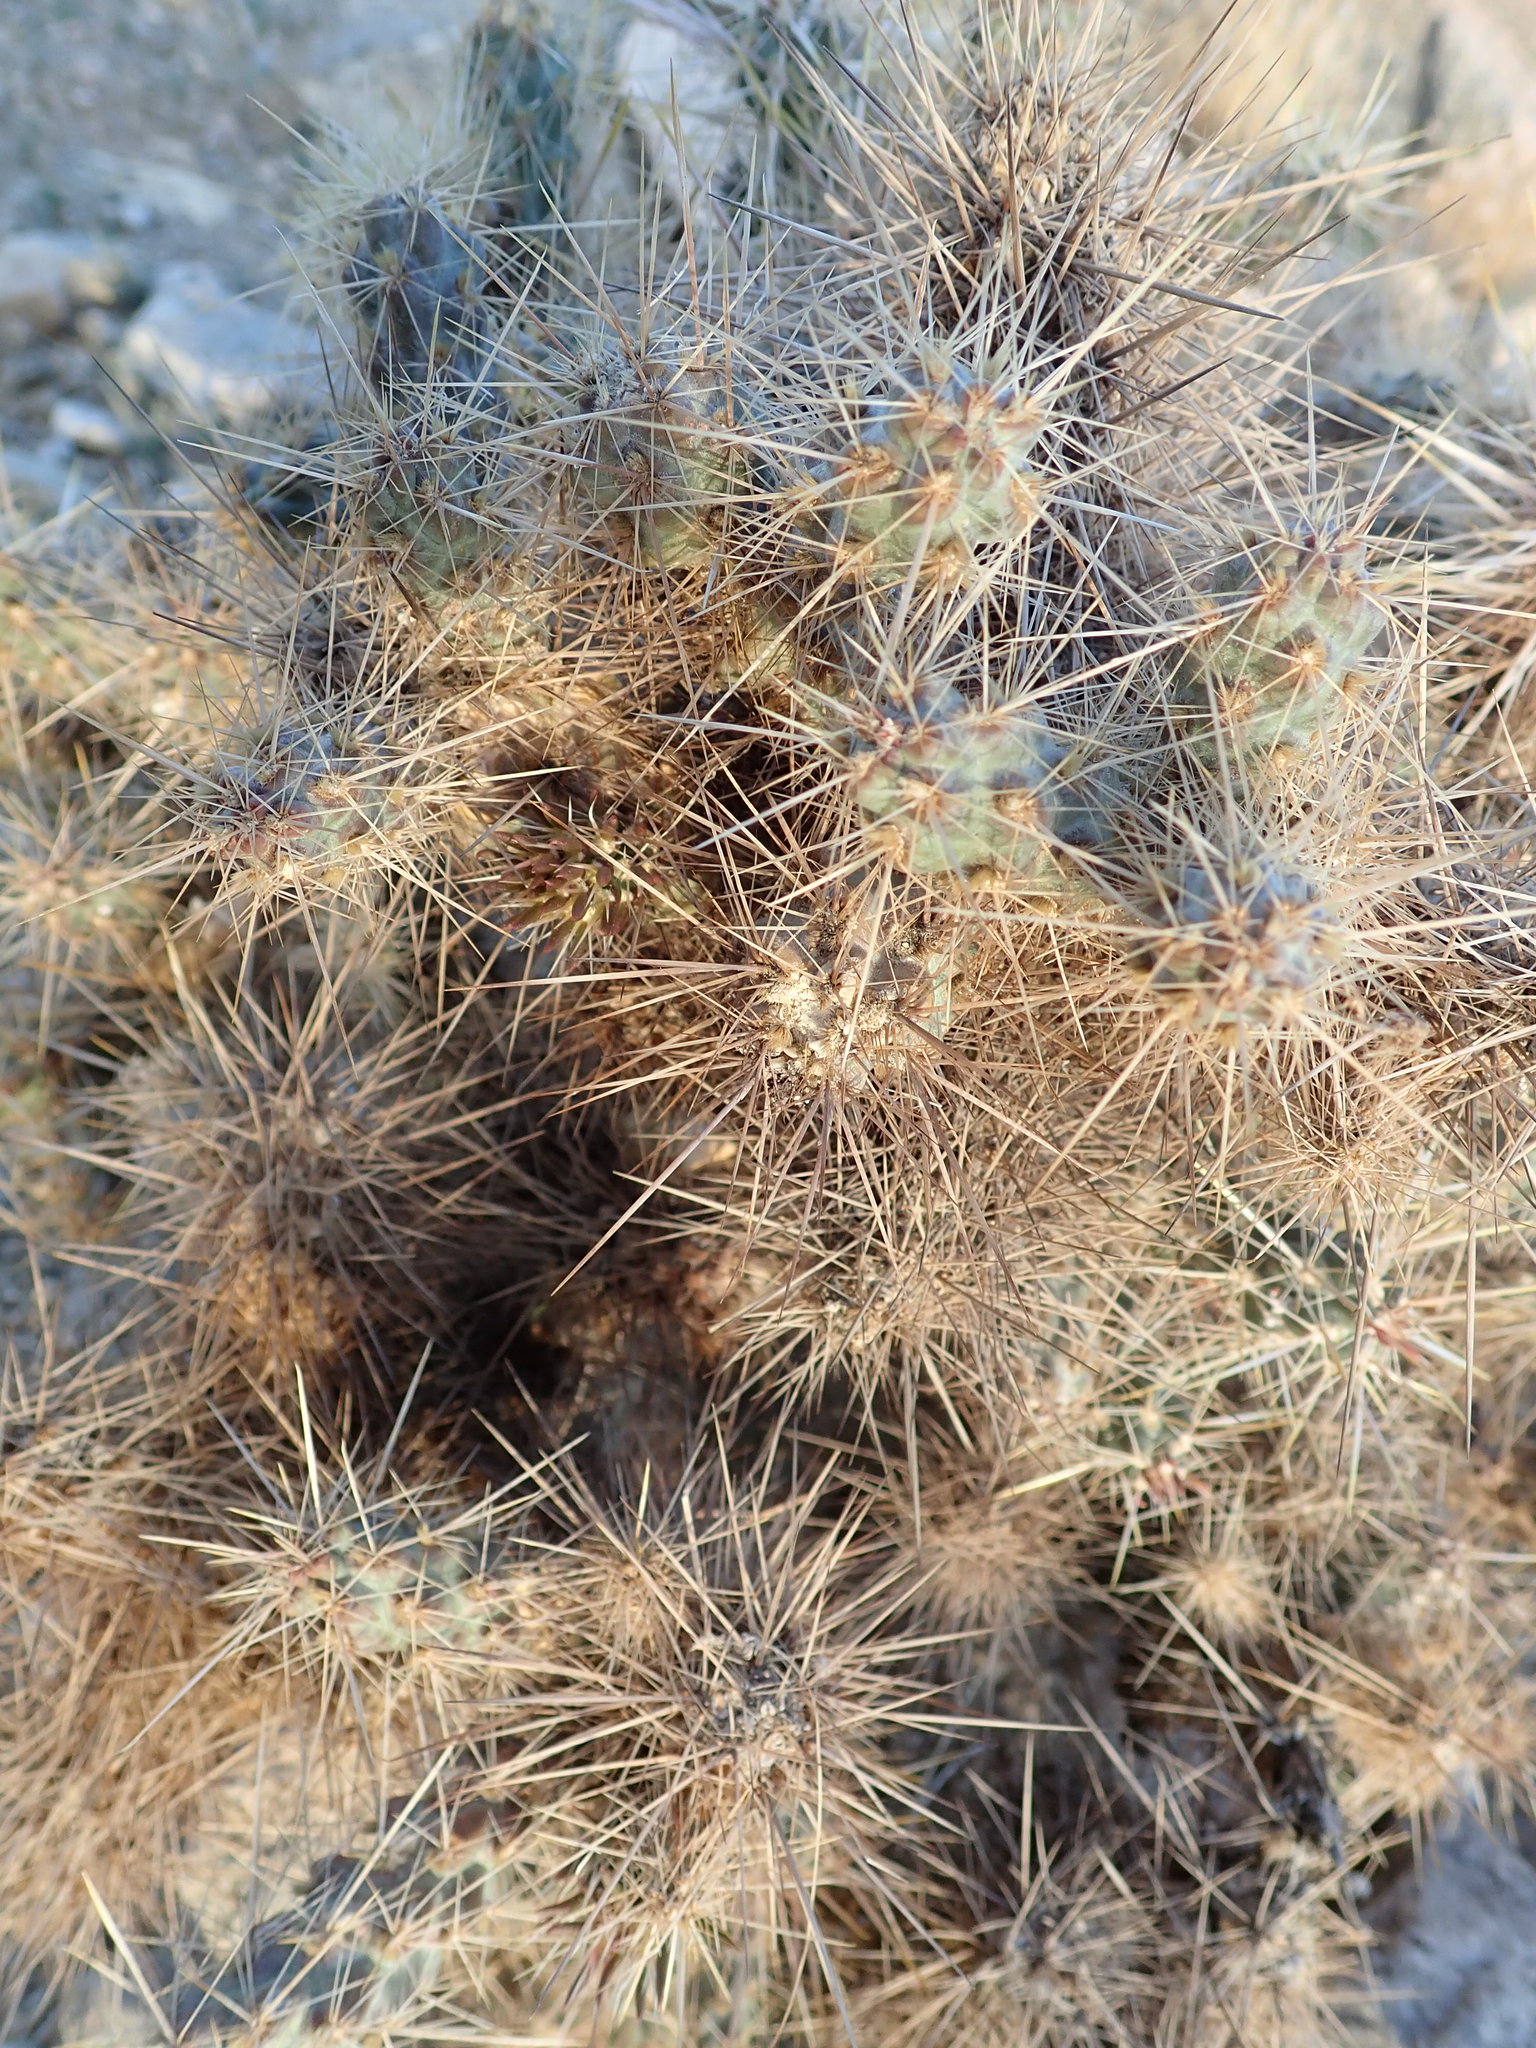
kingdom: Plantae
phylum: Tracheophyta
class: Magnoliopsida
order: Caryophyllales
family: Cactaceae
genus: Cylindropuntia
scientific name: Cylindropuntia echinocarpa
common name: Ground cholla
